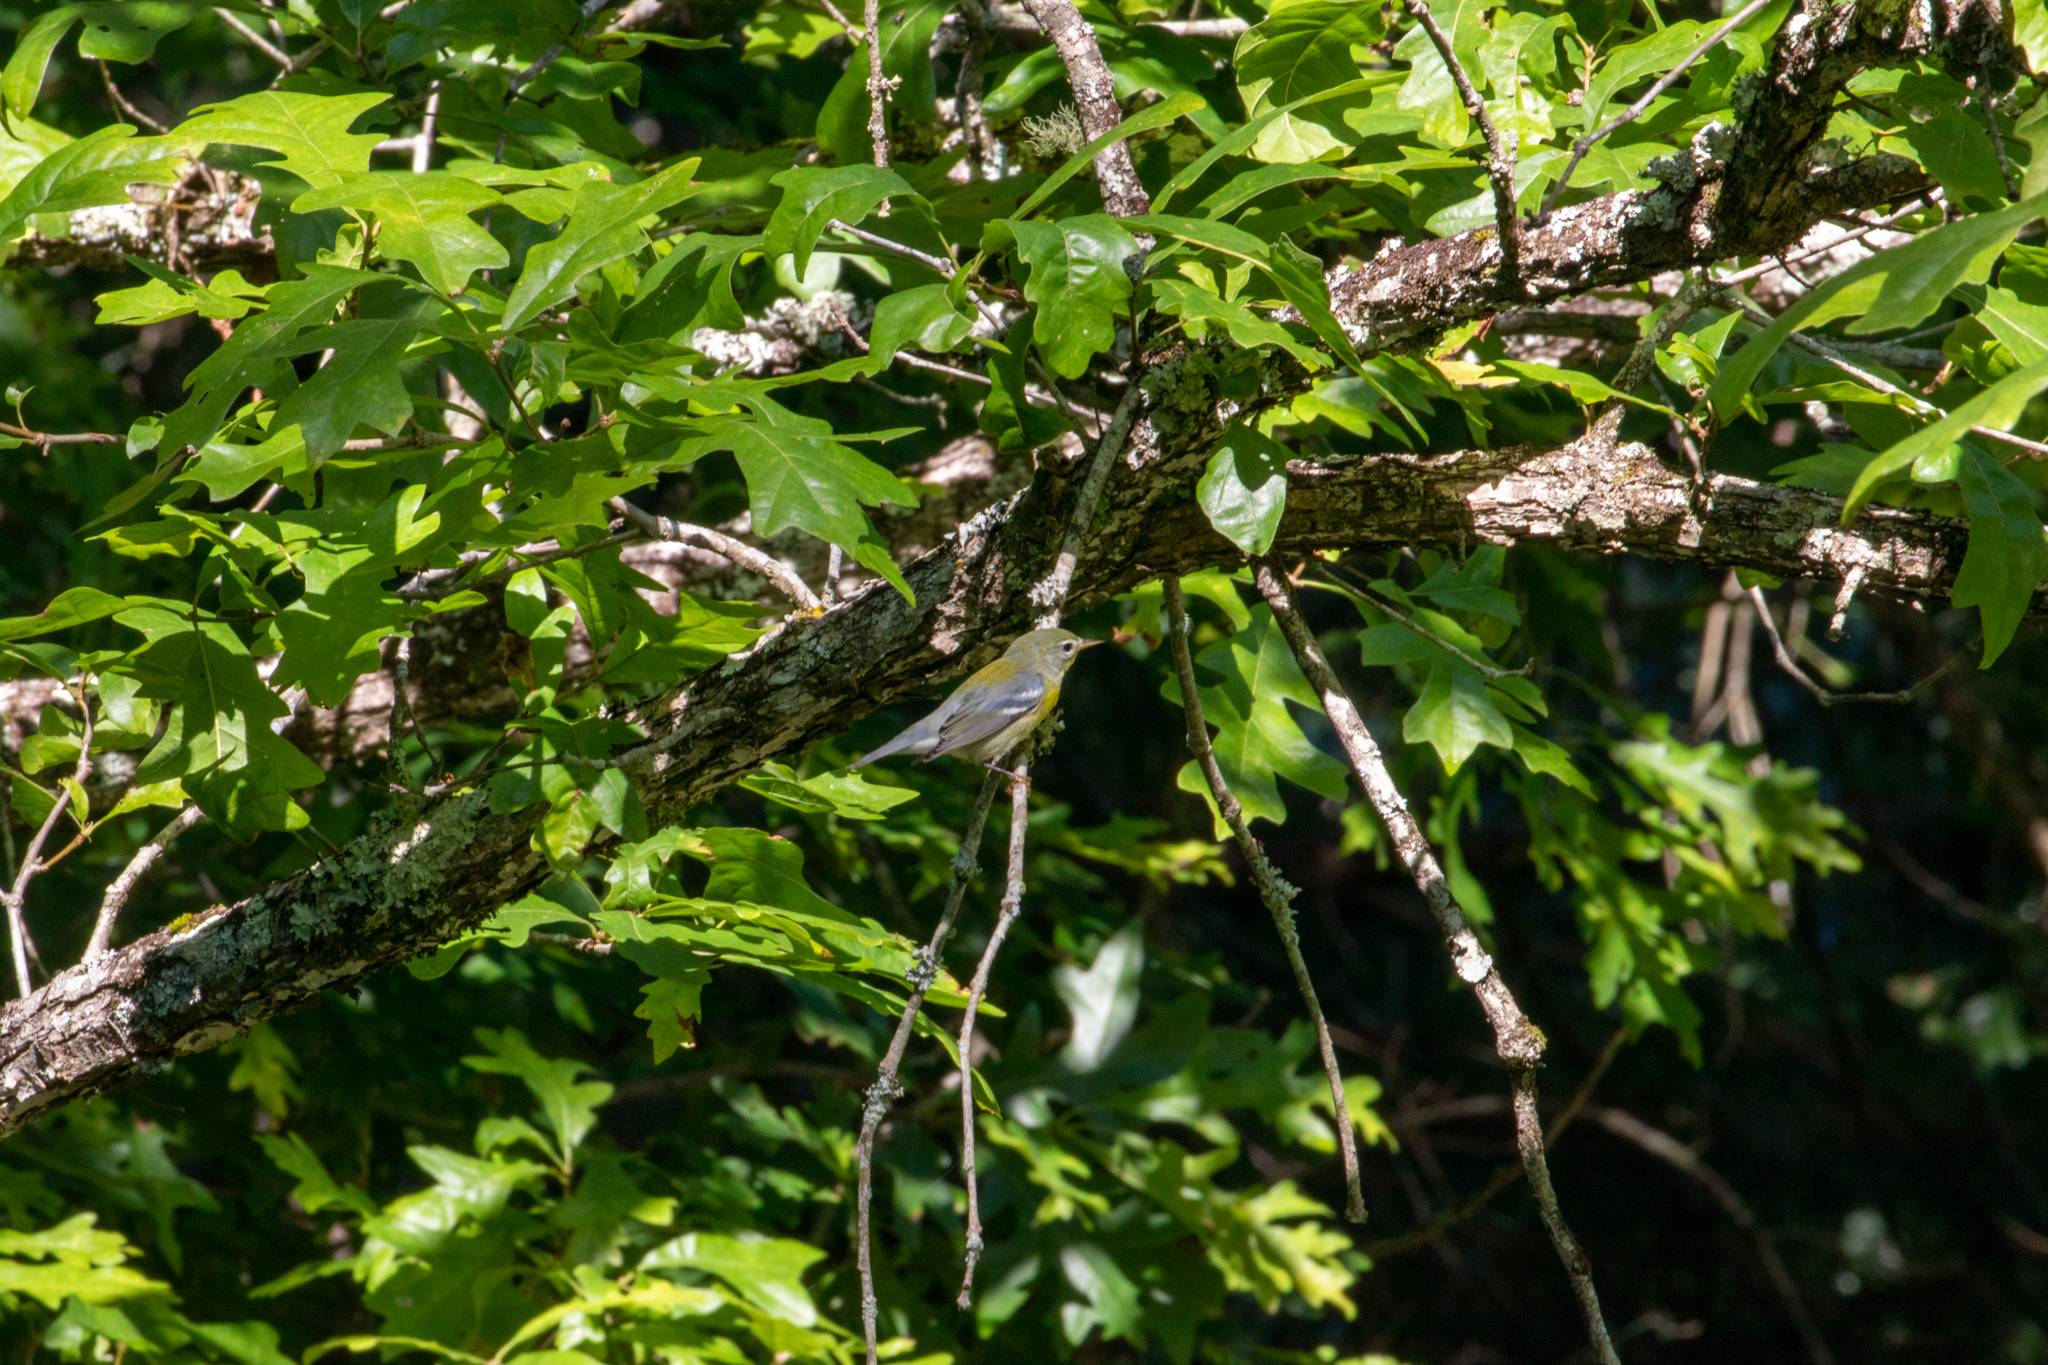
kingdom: Animalia
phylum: Chordata
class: Aves
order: Passeriformes
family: Parulidae
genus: Setophaga
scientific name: Setophaga americana
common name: Northern parula
